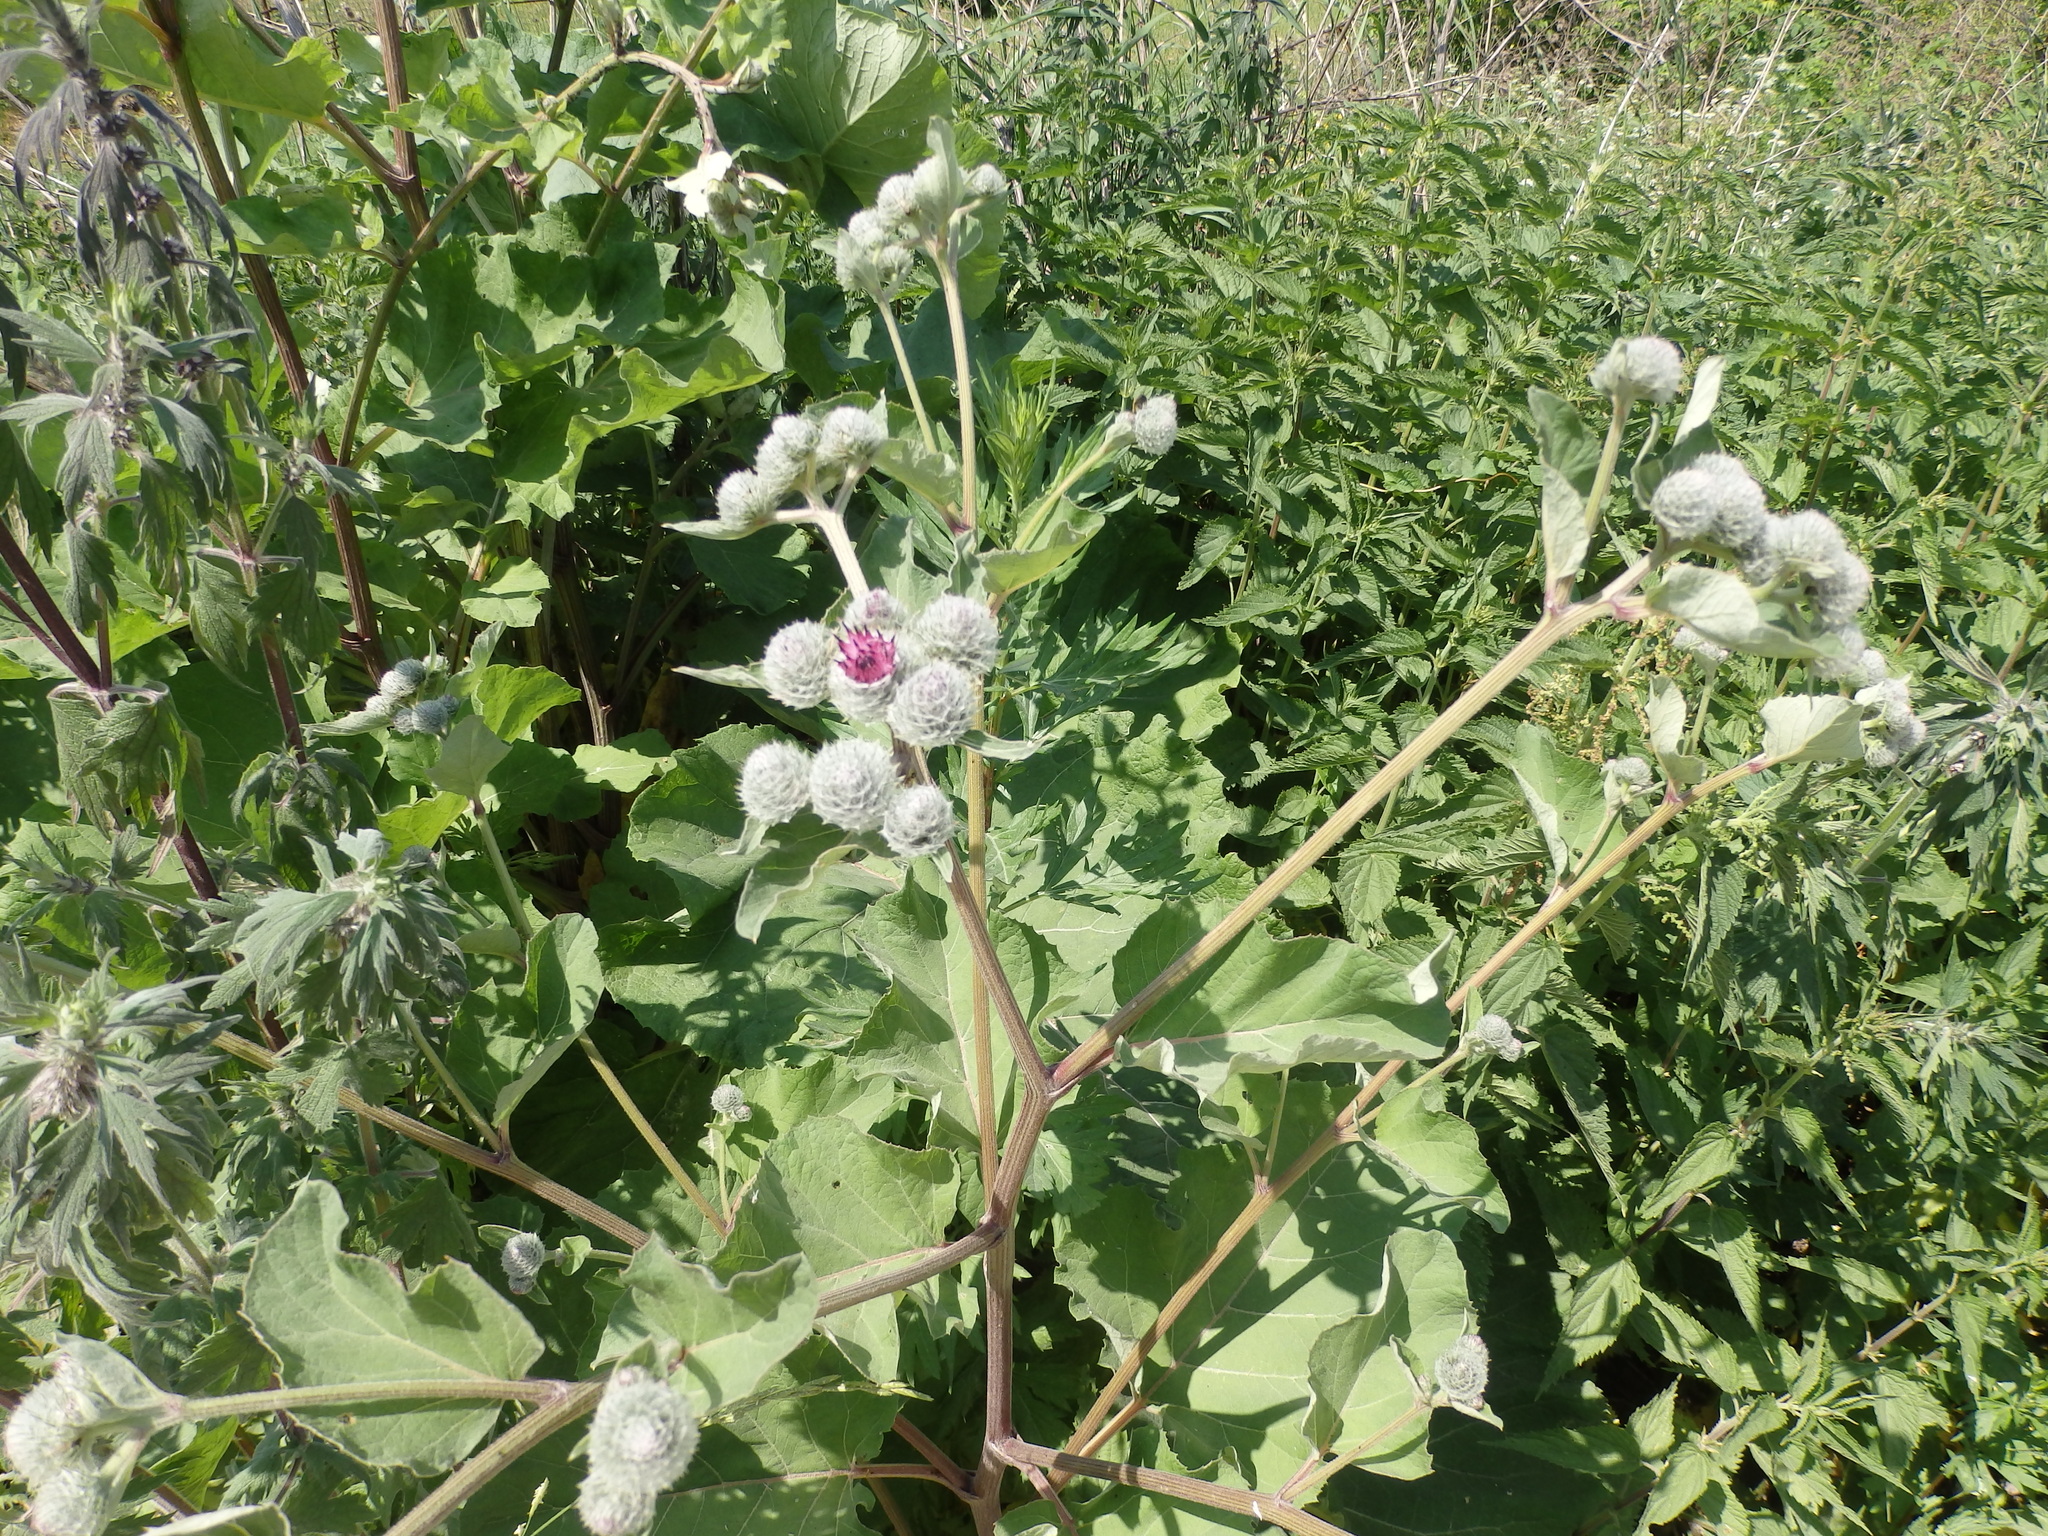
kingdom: Plantae
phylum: Tracheophyta
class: Magnoliopsida
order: Asterales
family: Asteraceae
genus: Arctium
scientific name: Arctium tomentosum
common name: Woolly burdock
